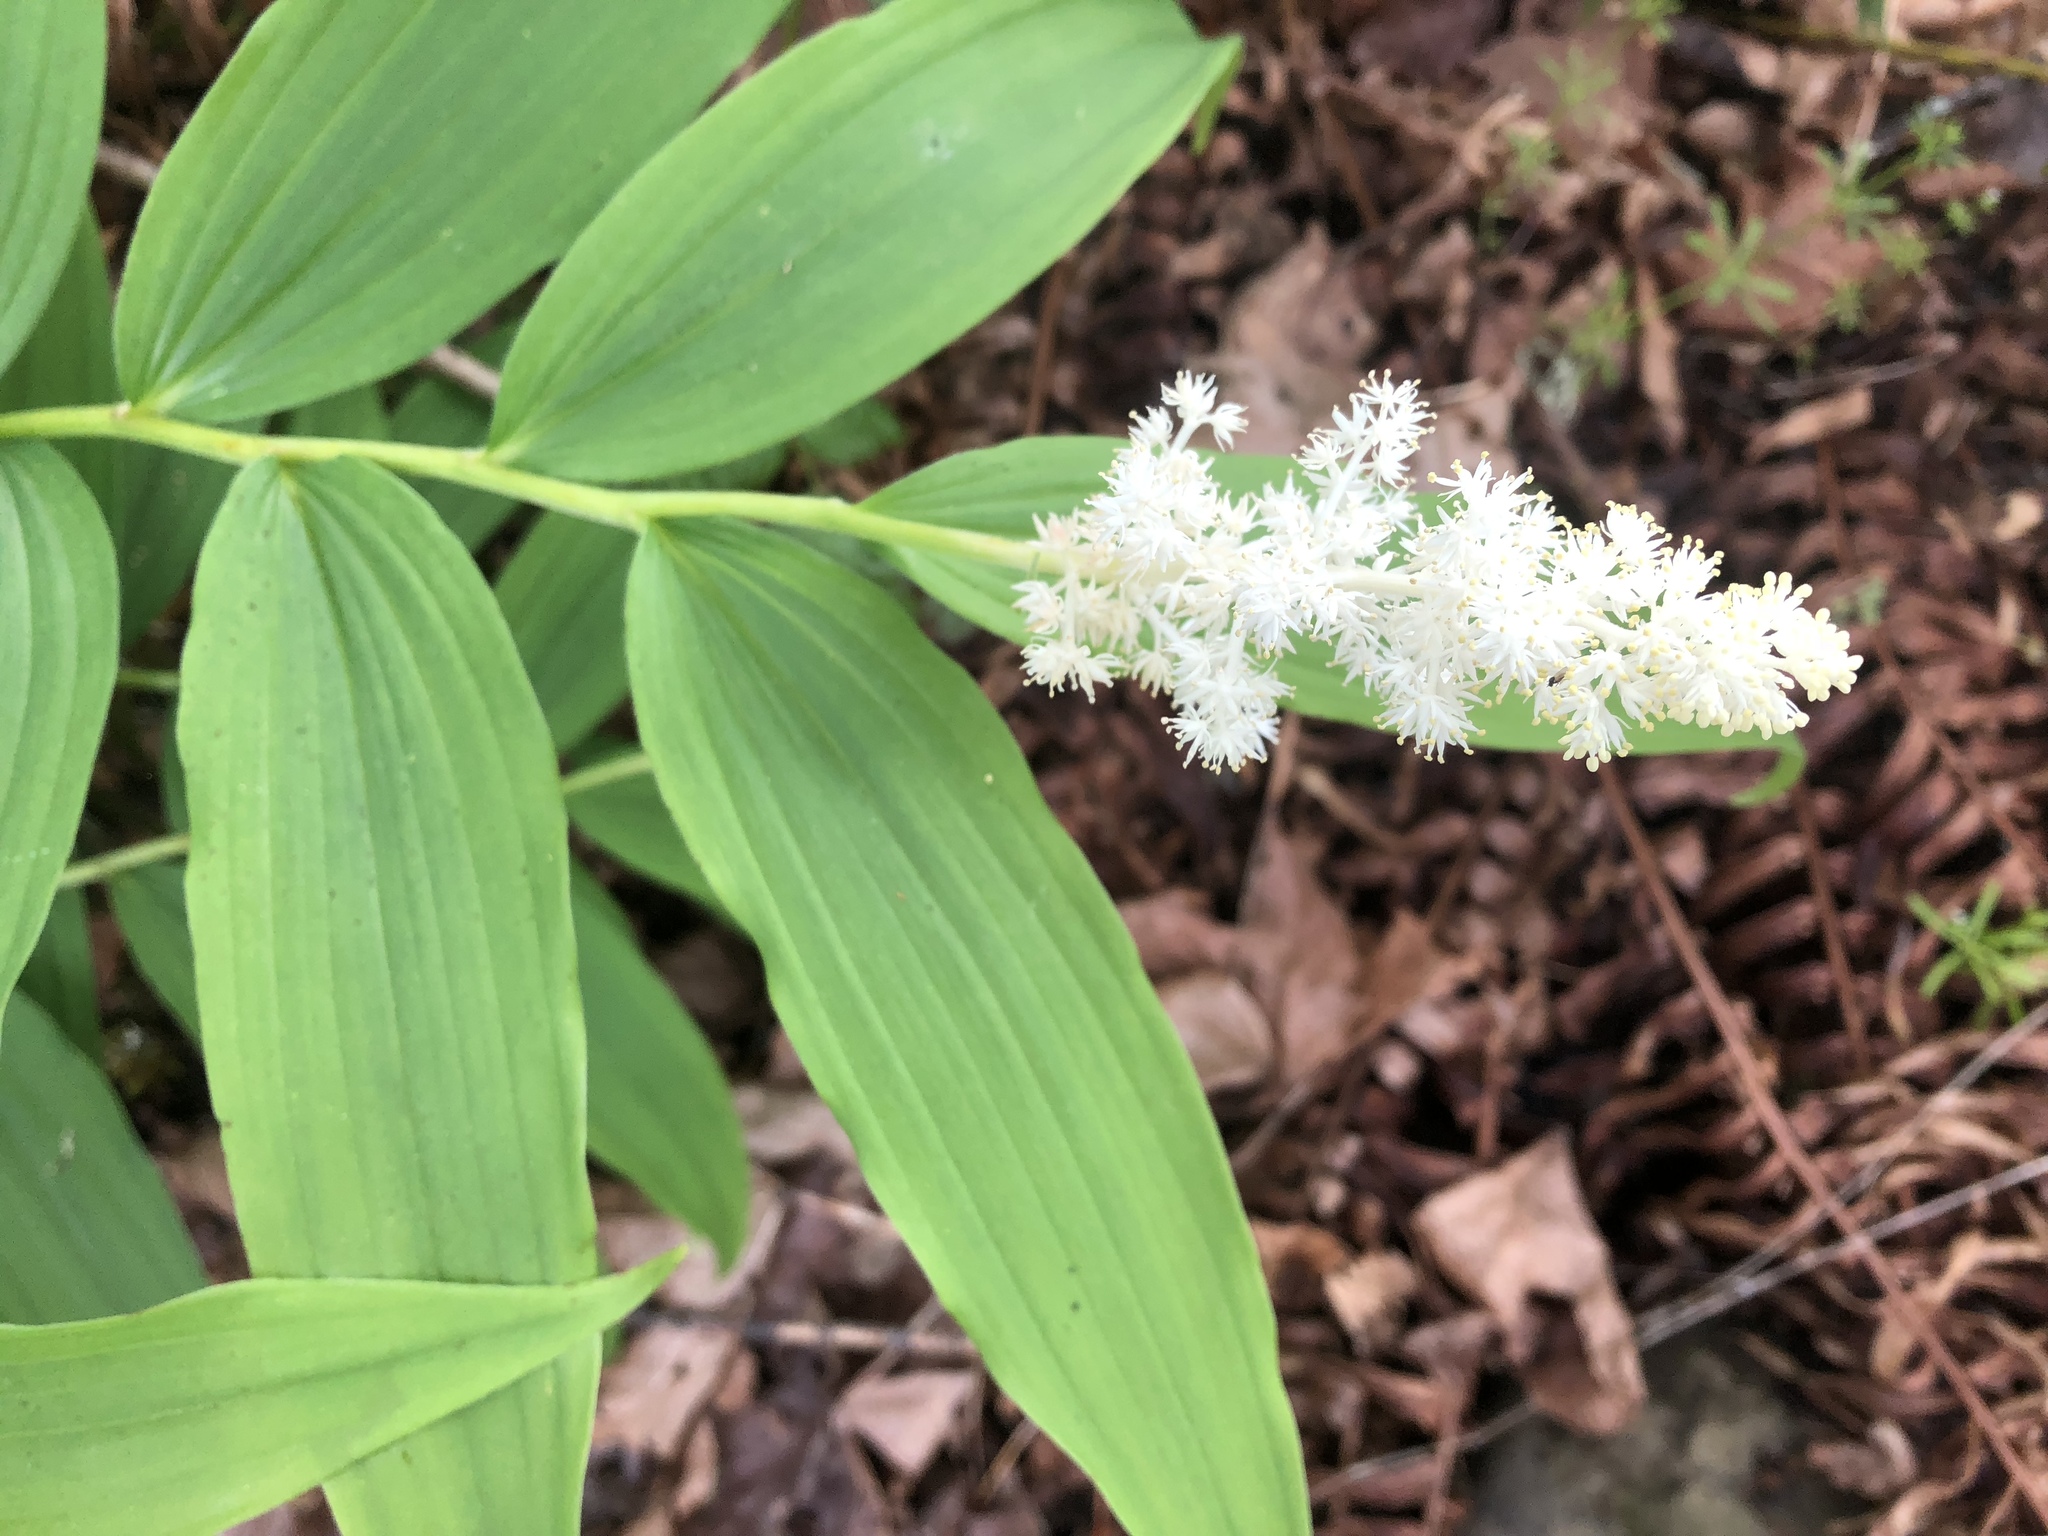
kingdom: Plantae
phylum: Tracheophyta
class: Liliopsida
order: Asparagales
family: Asparagaceae
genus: Maianthemum
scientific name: Maianthemum racemosum
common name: False spikenard
